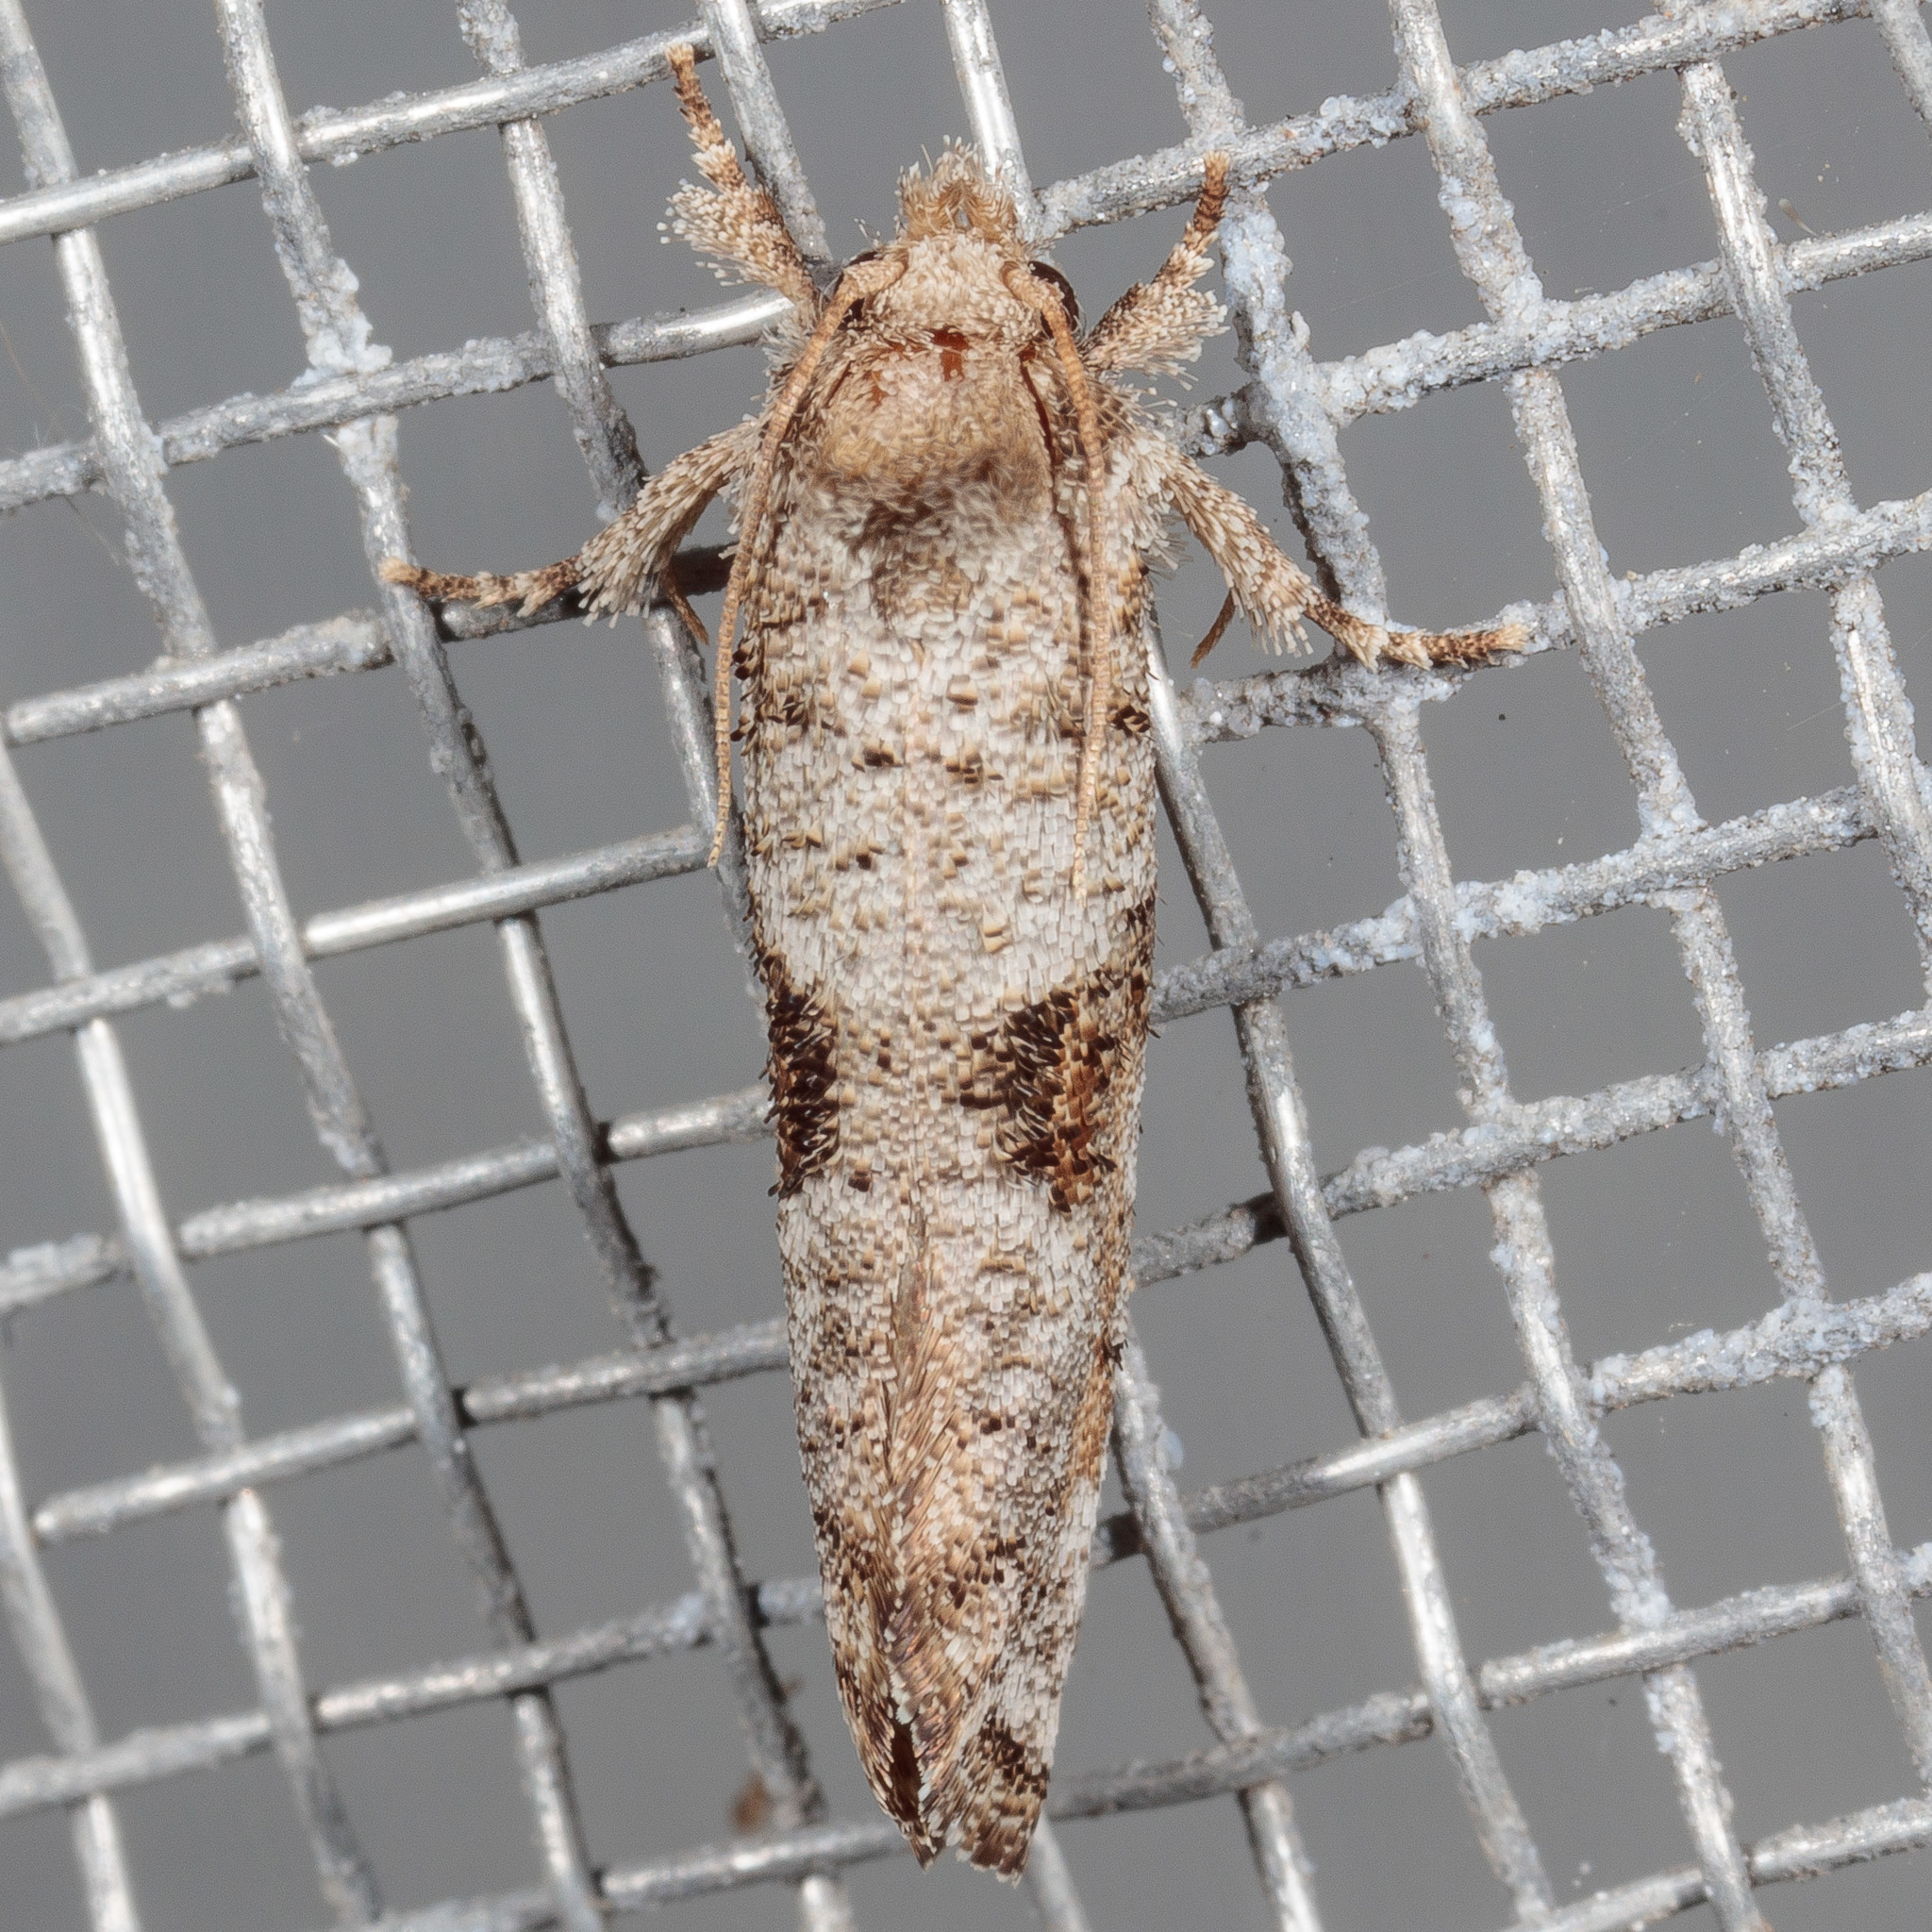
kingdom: Animalia
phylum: Arthropoda
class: Insecta
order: Lepidoptera
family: Tineidae
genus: Acrolophus
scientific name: Acrolophus piger
